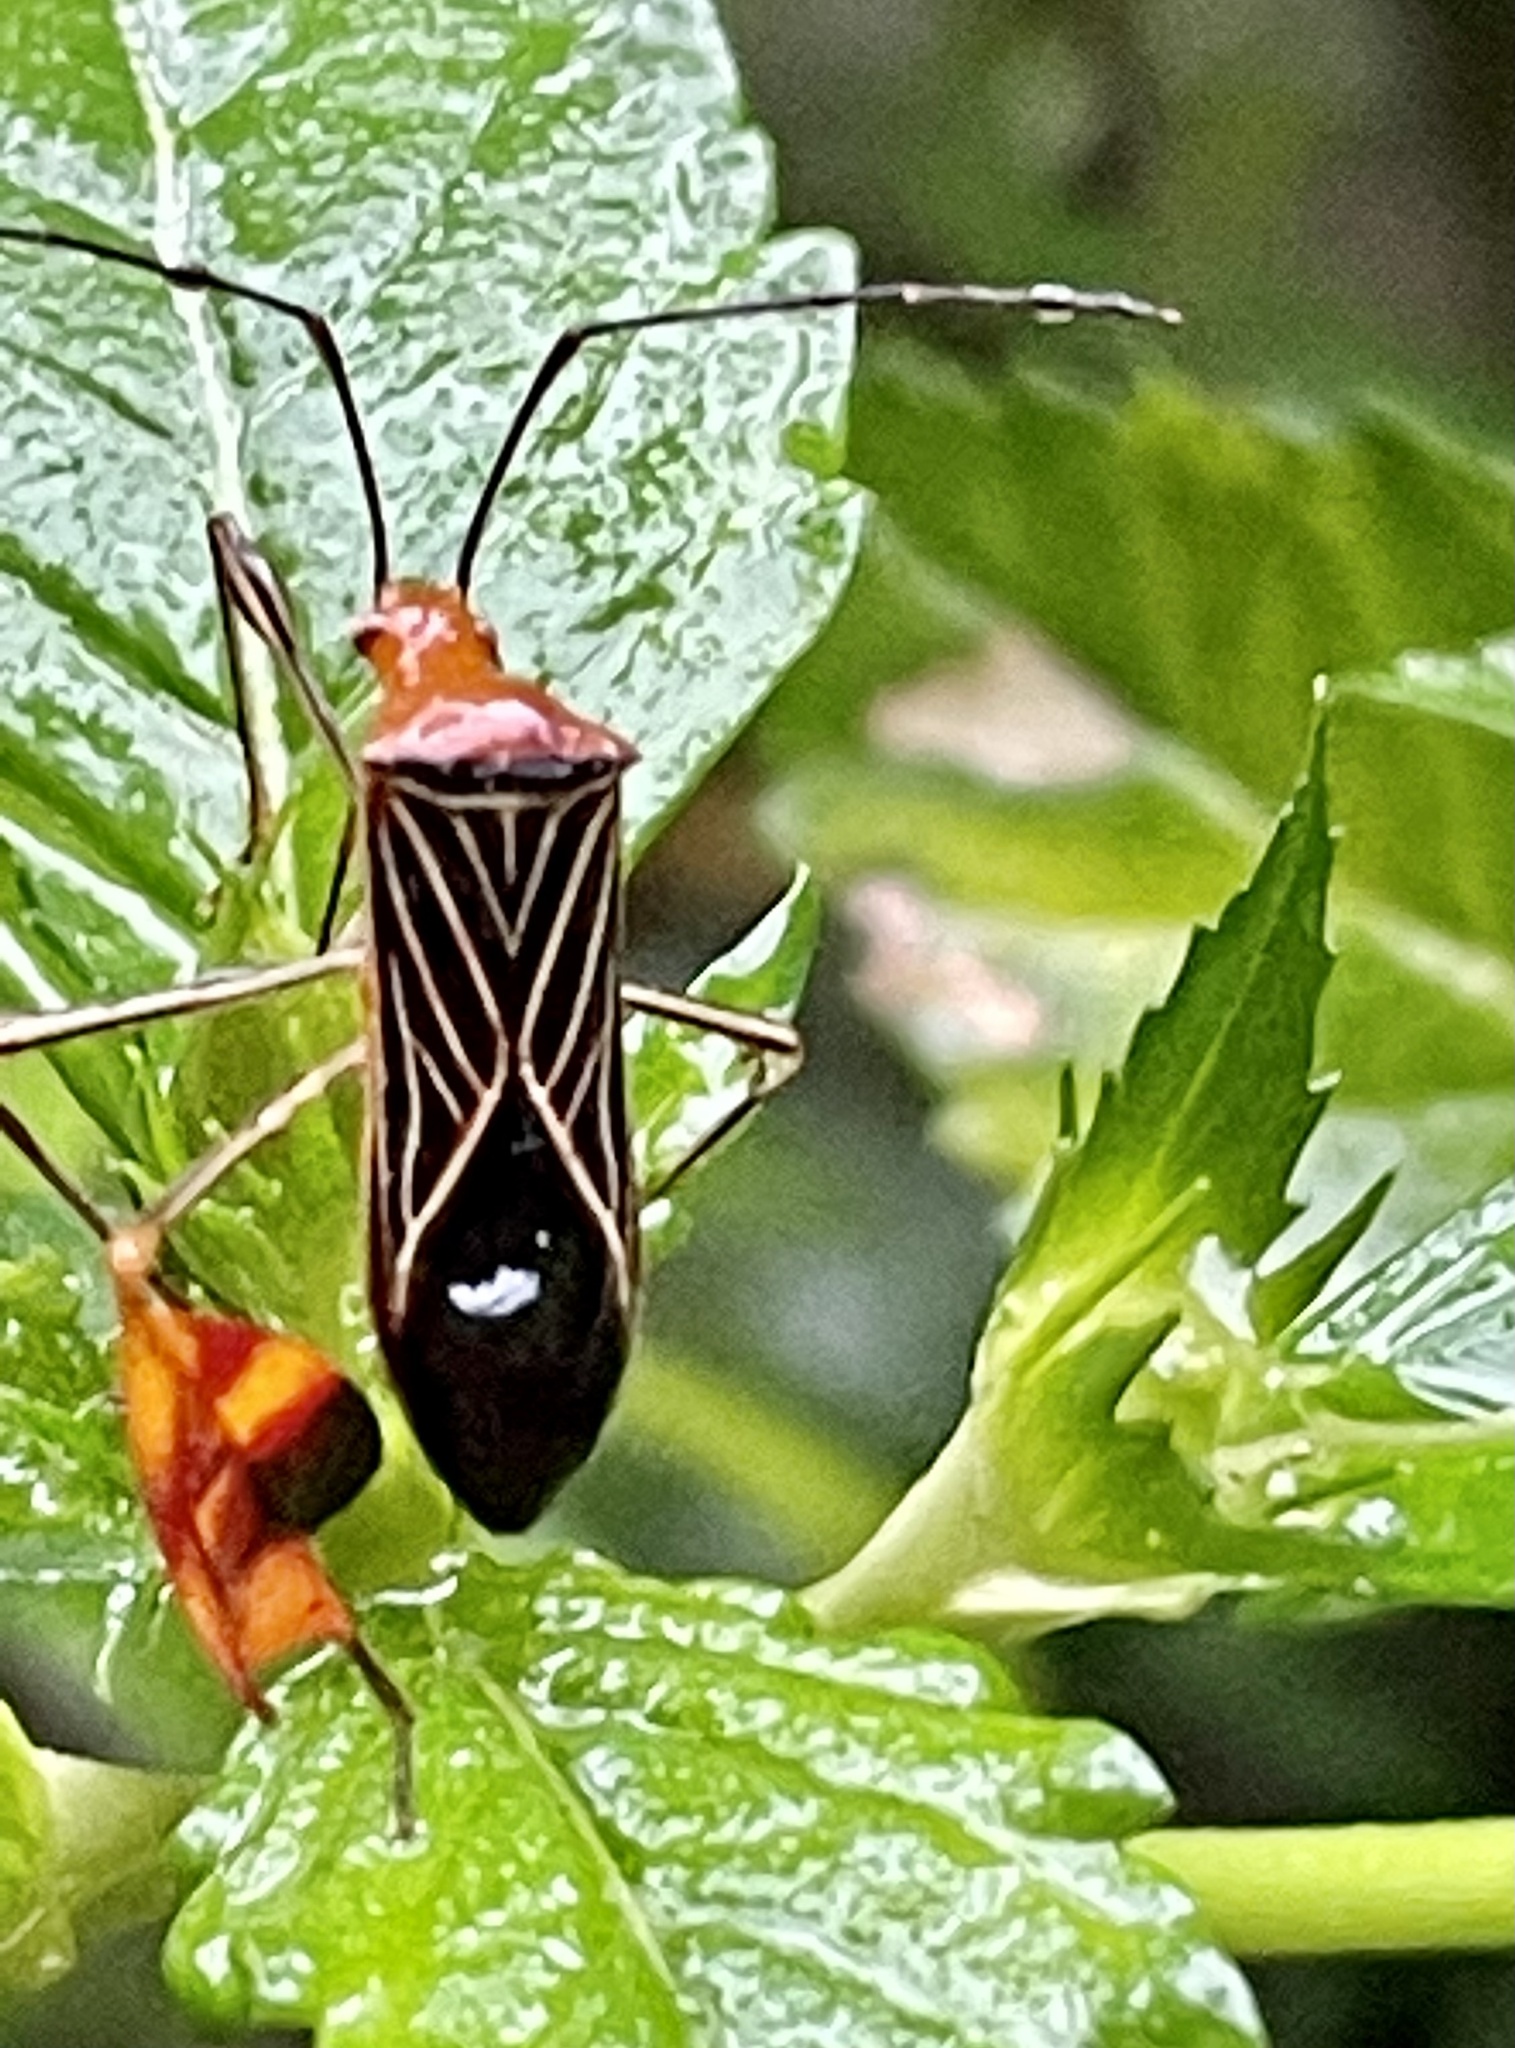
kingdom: Animalia
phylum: Arthropoda
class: Insecta
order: Hemiptera
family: Coreidae
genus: Bitta
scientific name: Bitta
